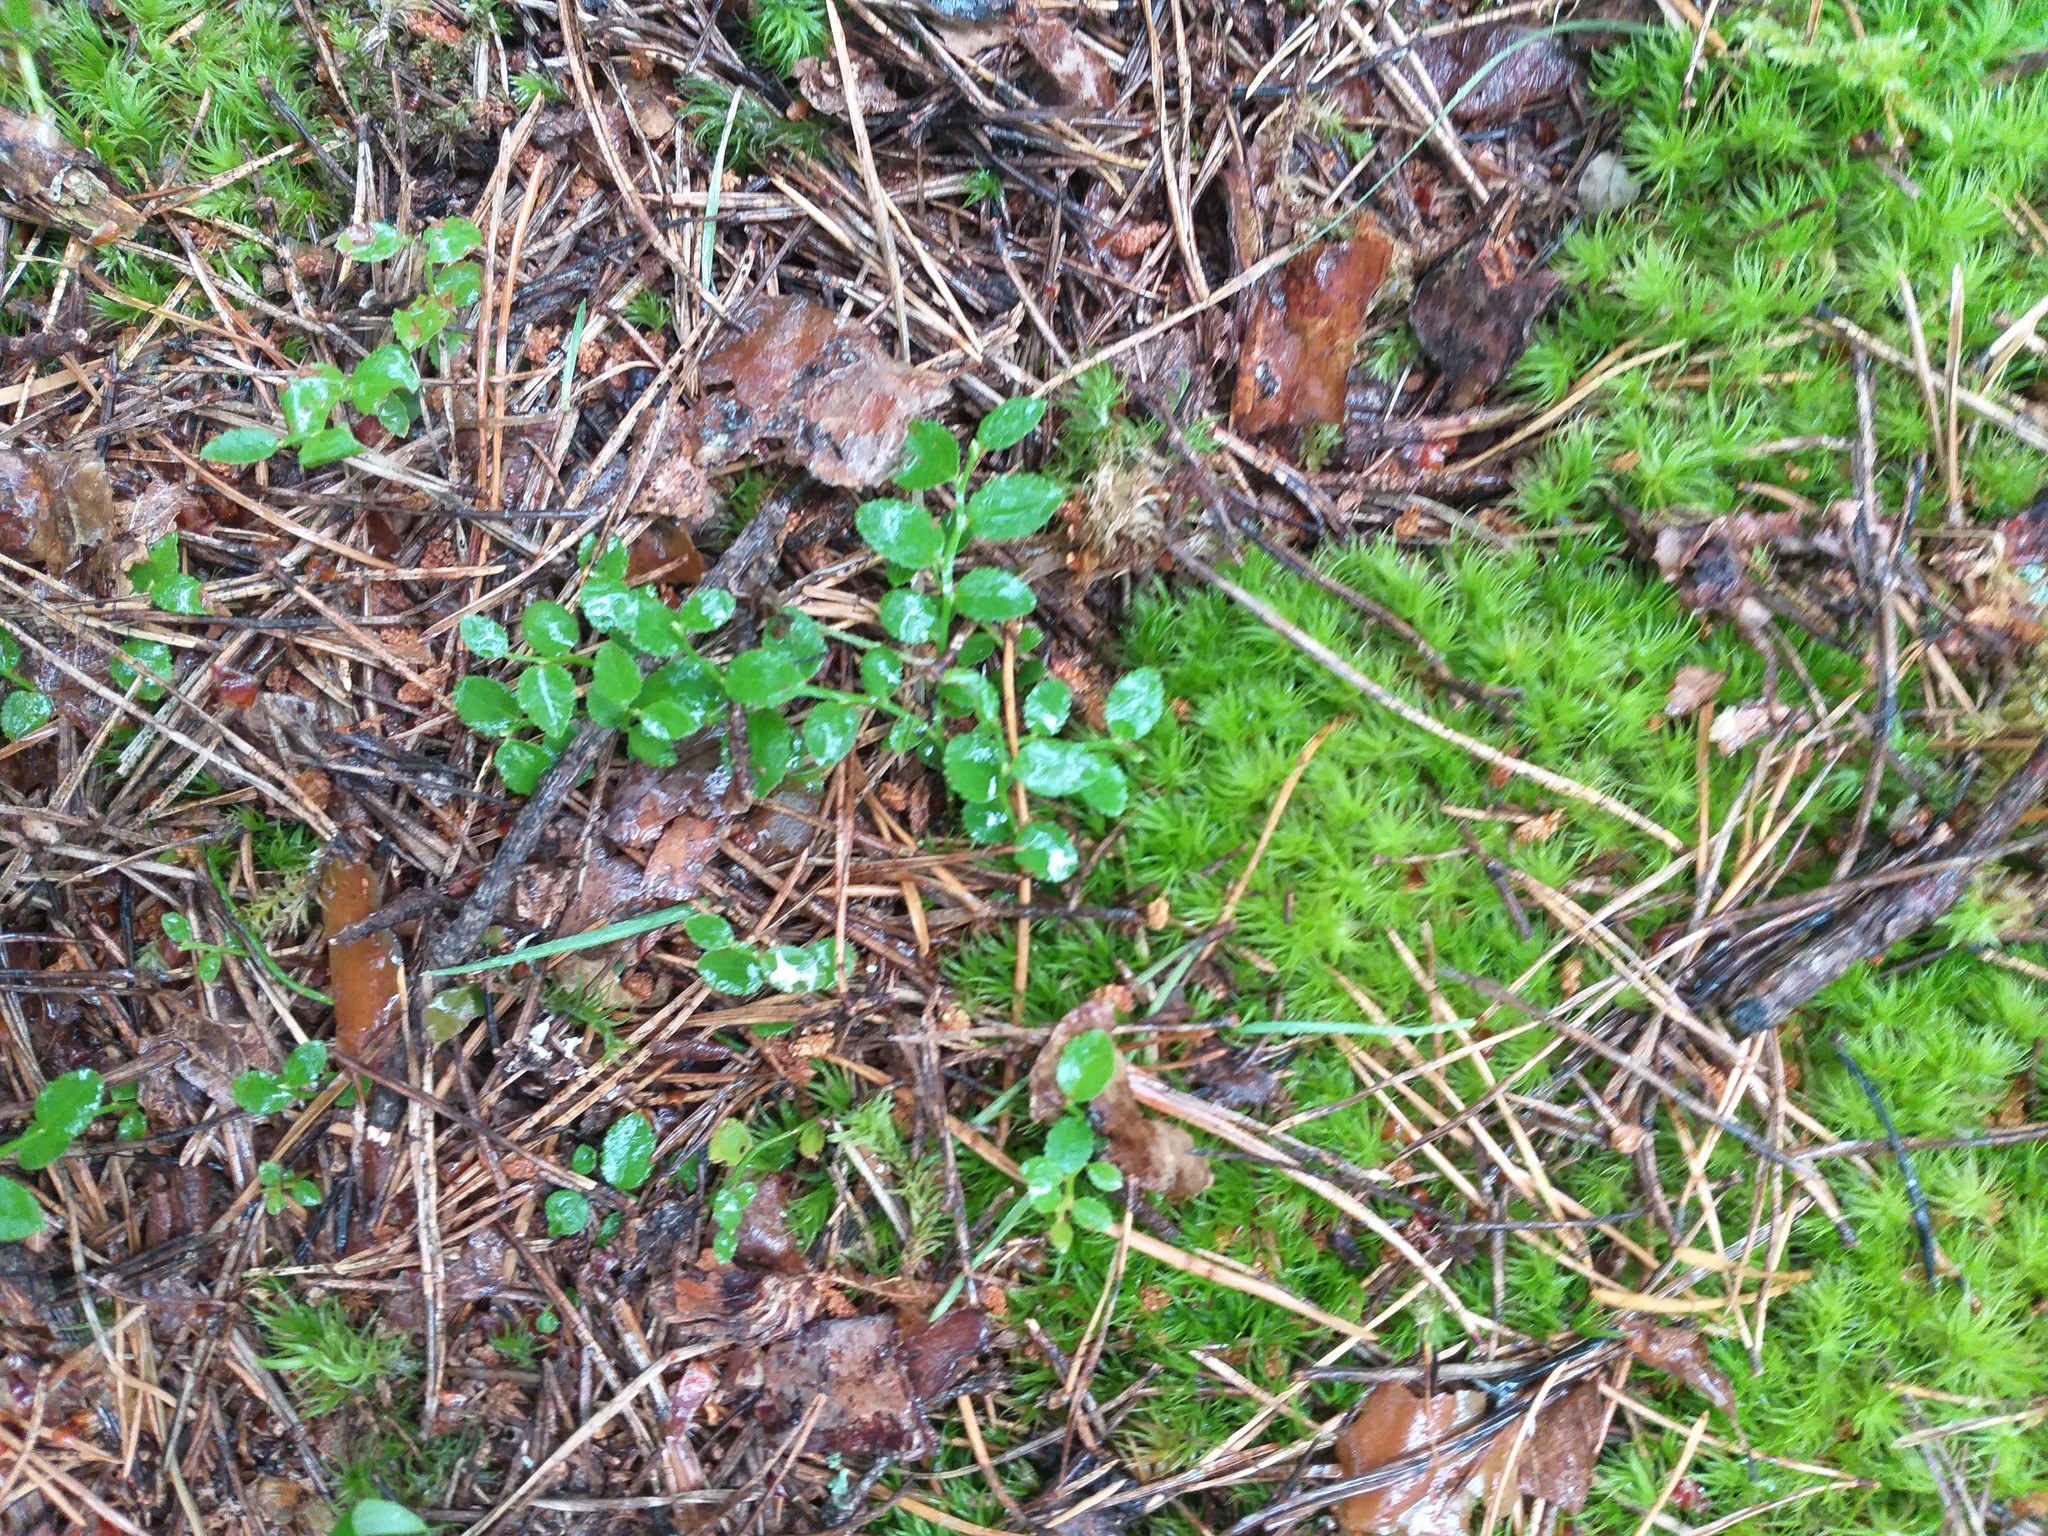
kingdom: Plantae
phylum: Tracheophyta
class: Magnoliopsida
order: Ericales
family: Ericaceae
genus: Vaccinium
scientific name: Vaccinium myrtillus
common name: Bilberry
